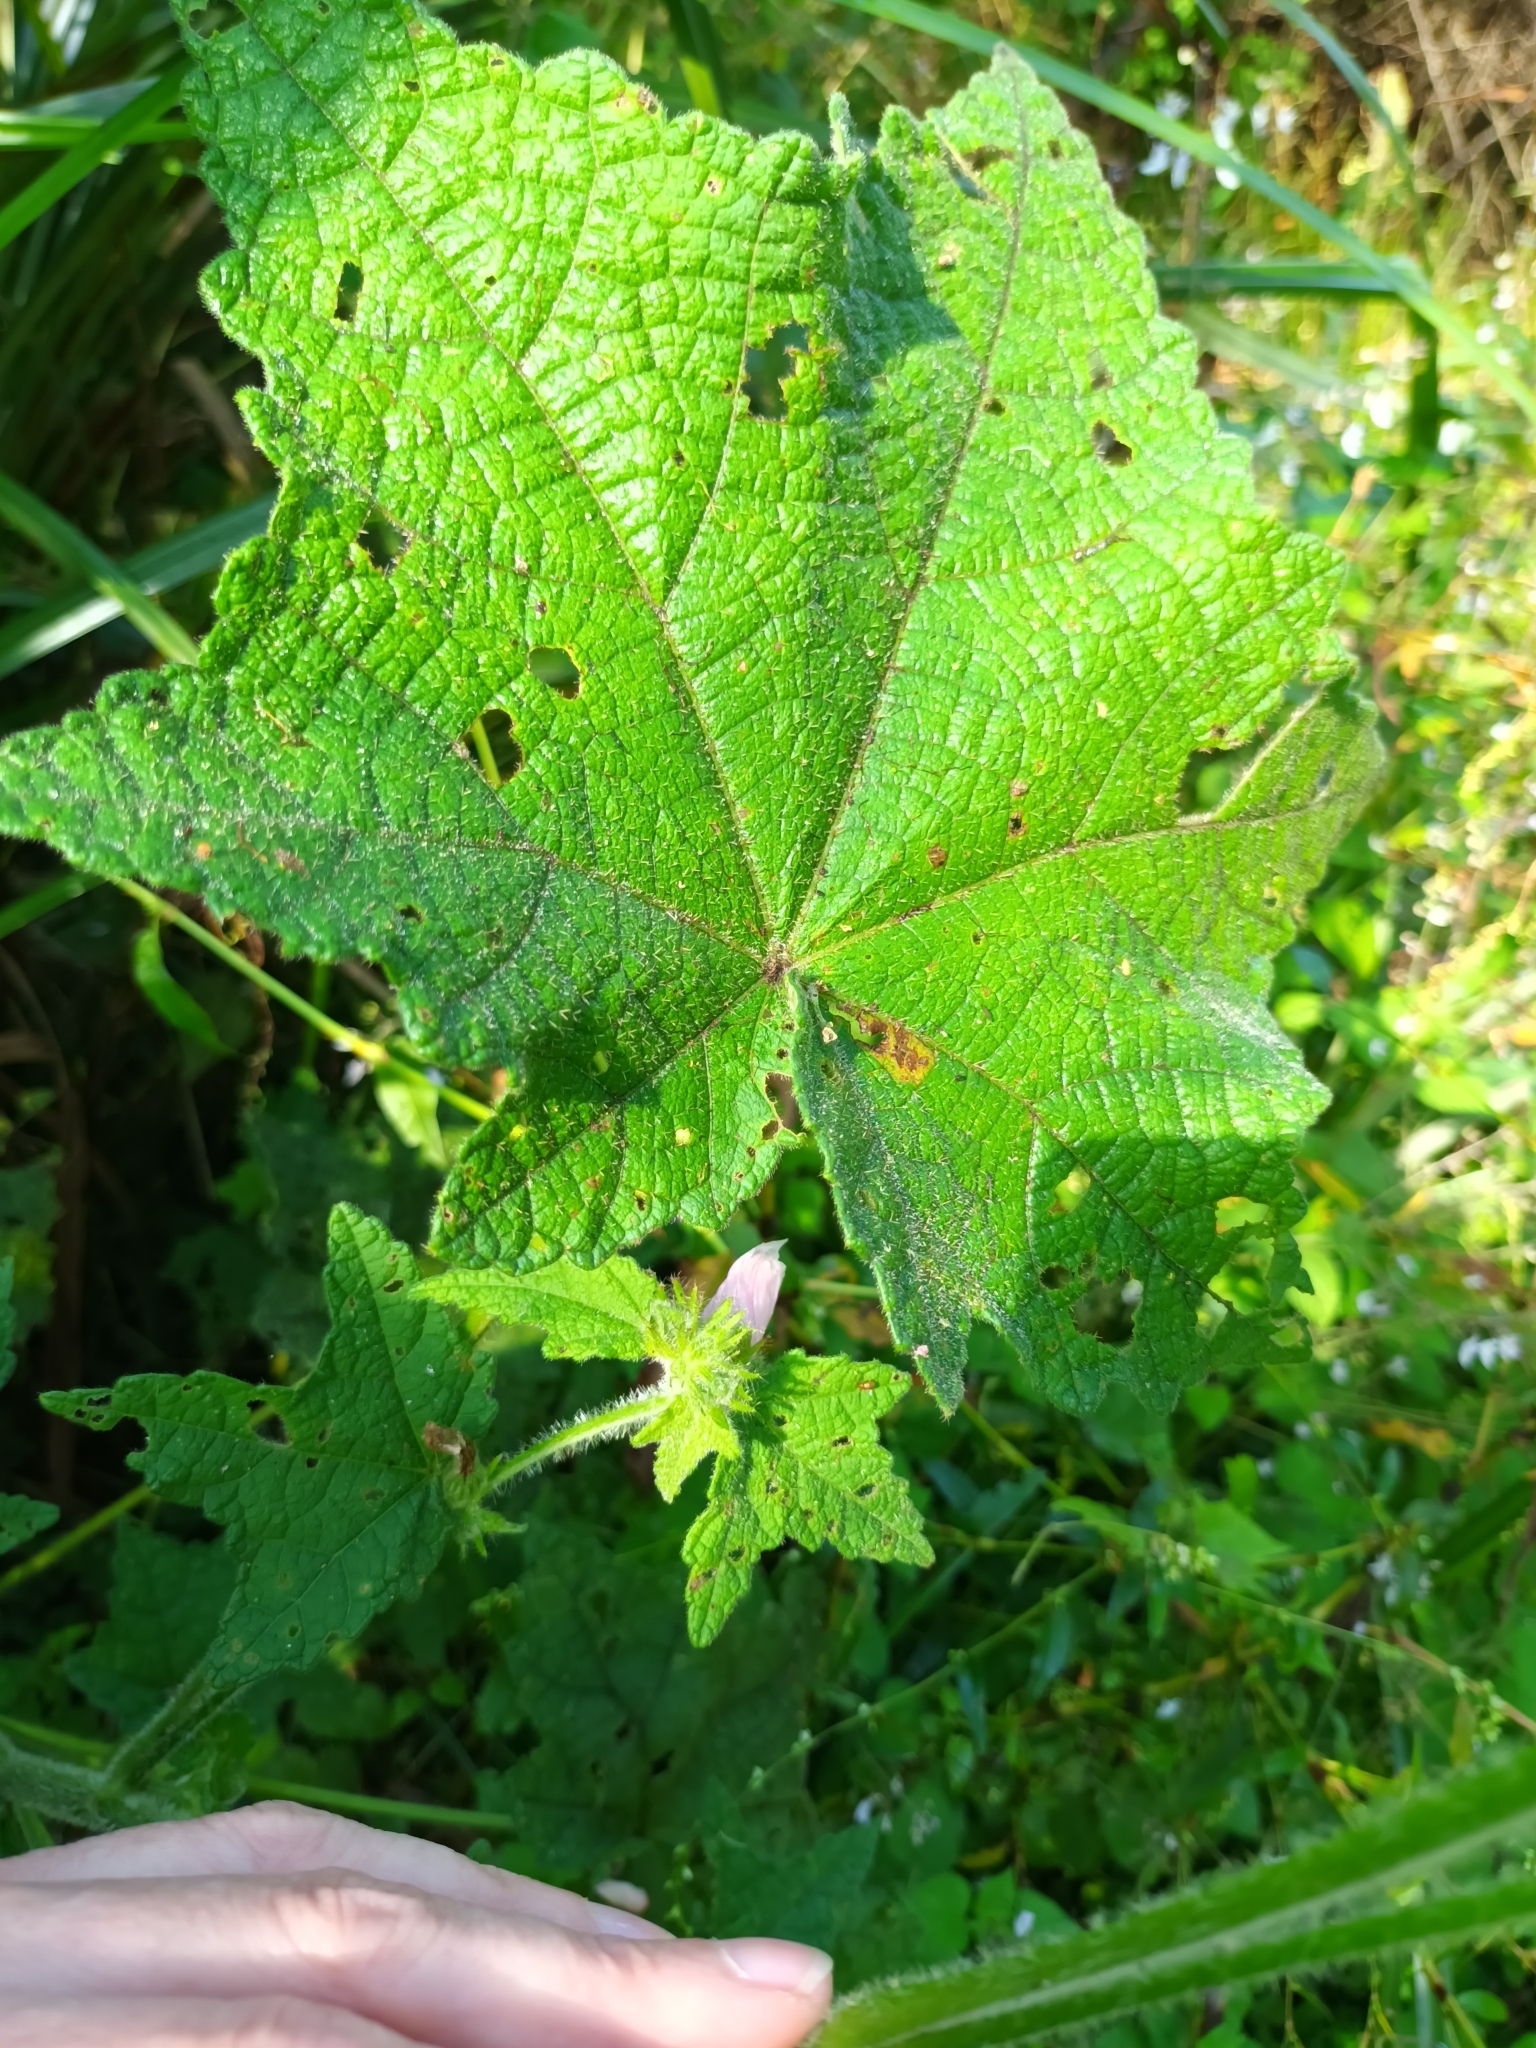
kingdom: Plantae
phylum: Tracheophyta
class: Magnoliopsida
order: Malvales
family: Malvaceae
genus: Pavonia
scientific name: Pavonia columella
